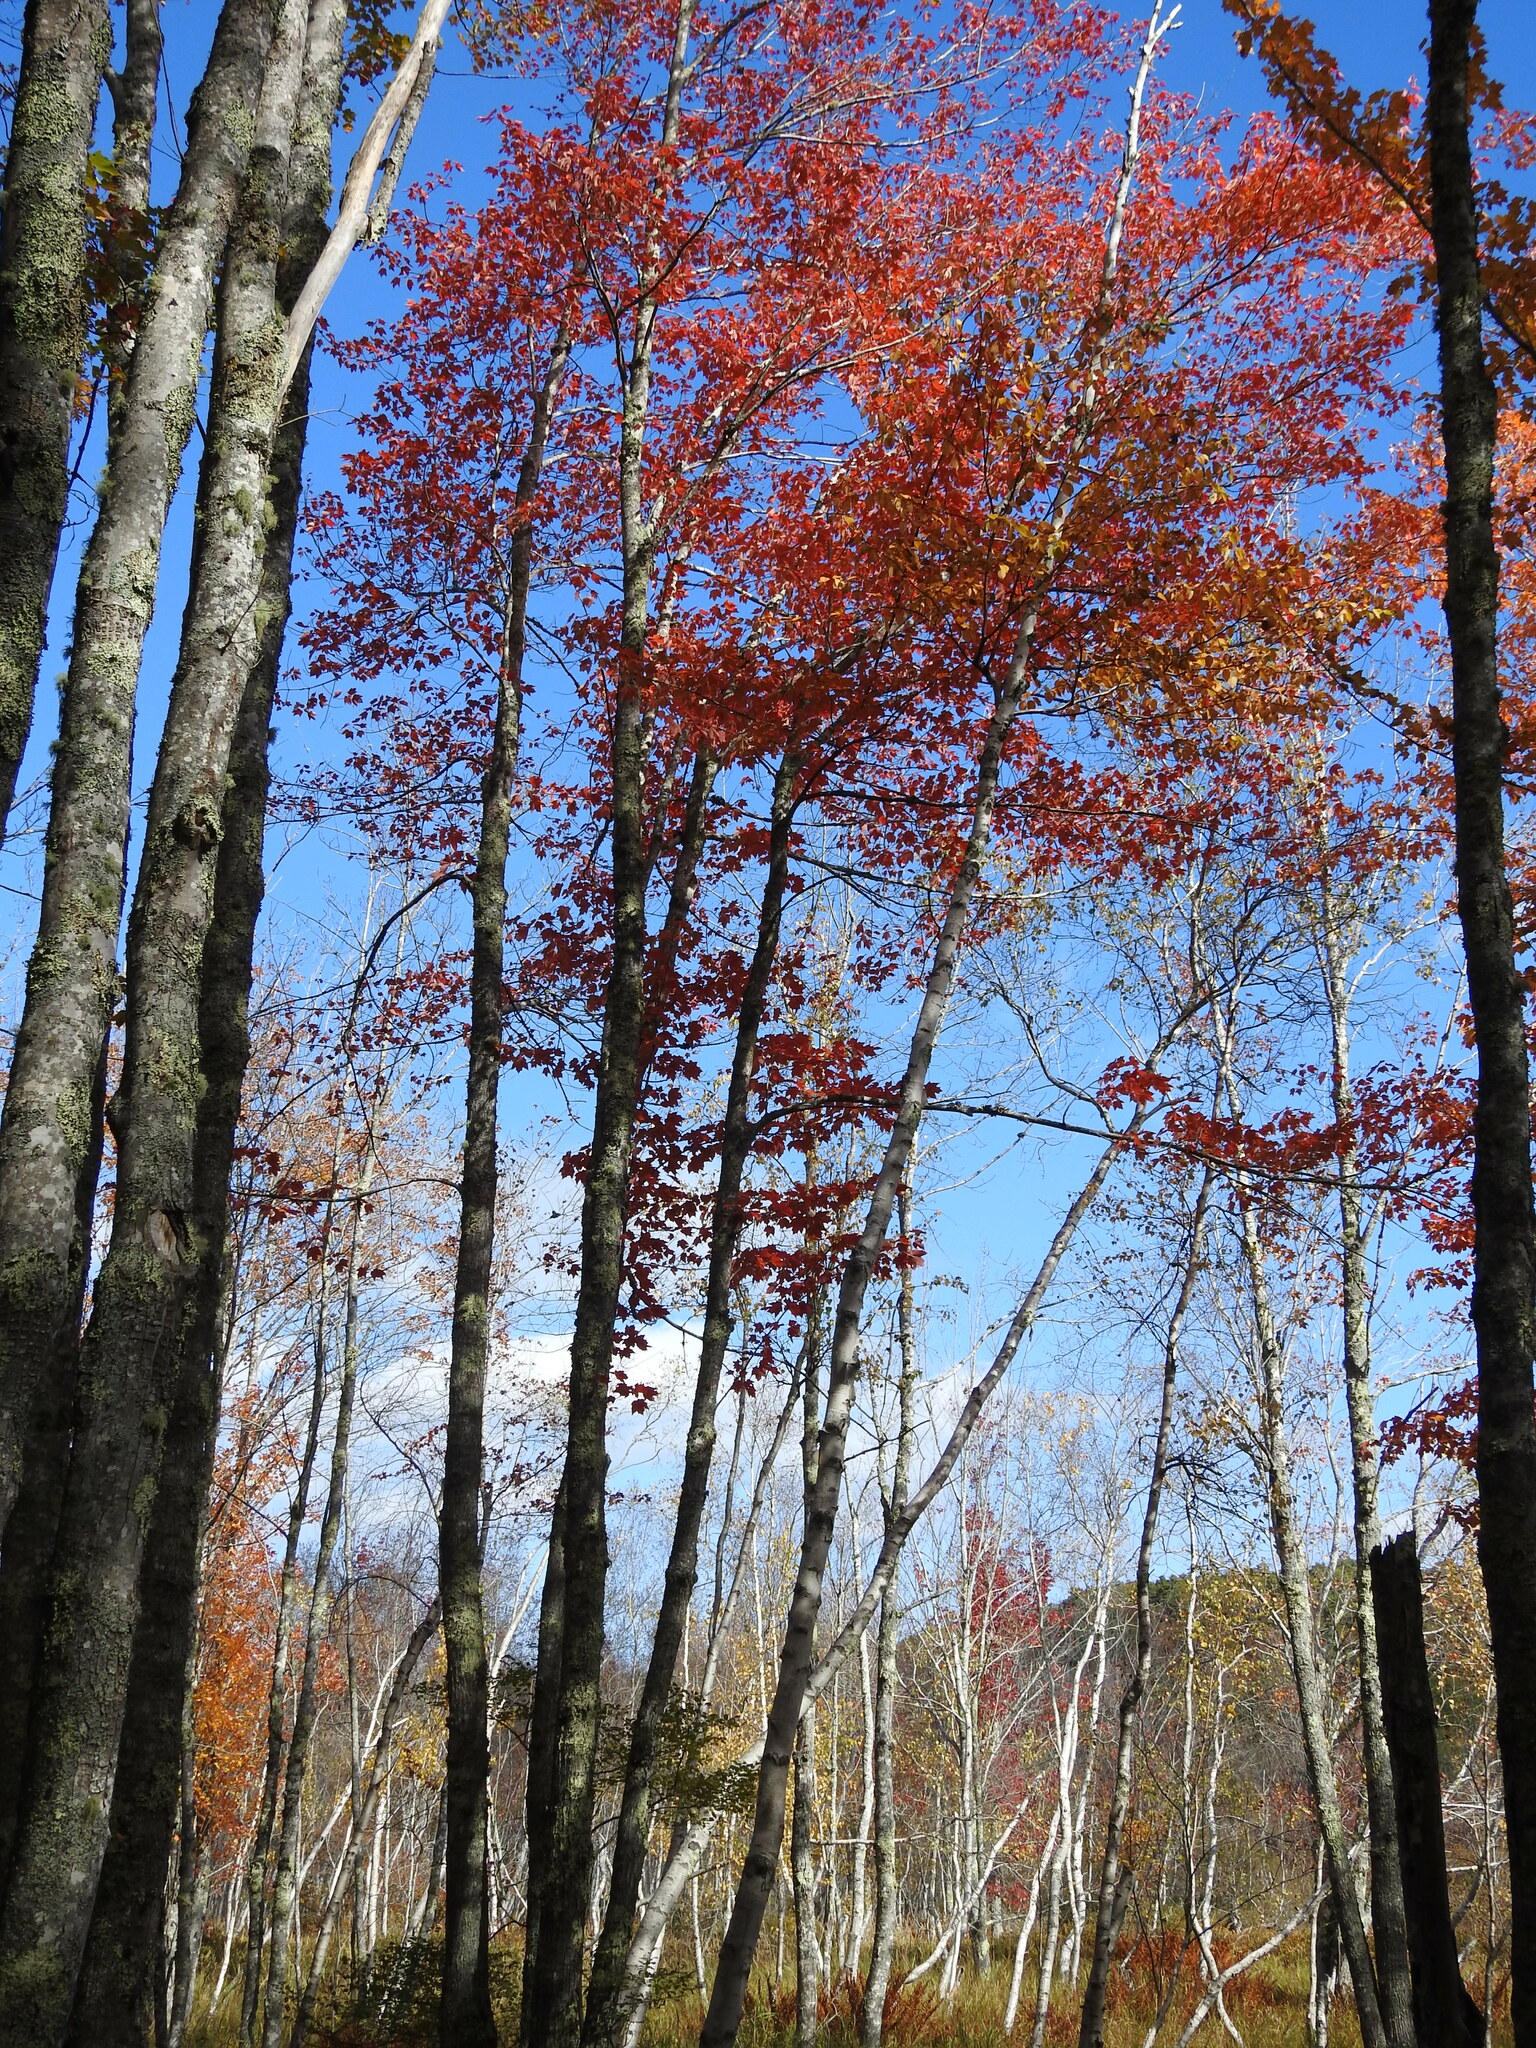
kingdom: Plantae
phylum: Tracheophyta
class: Magnoliopsida
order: Sapindales
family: Sapindaceae
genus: Acer
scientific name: Acer rubrum
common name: Red maple
